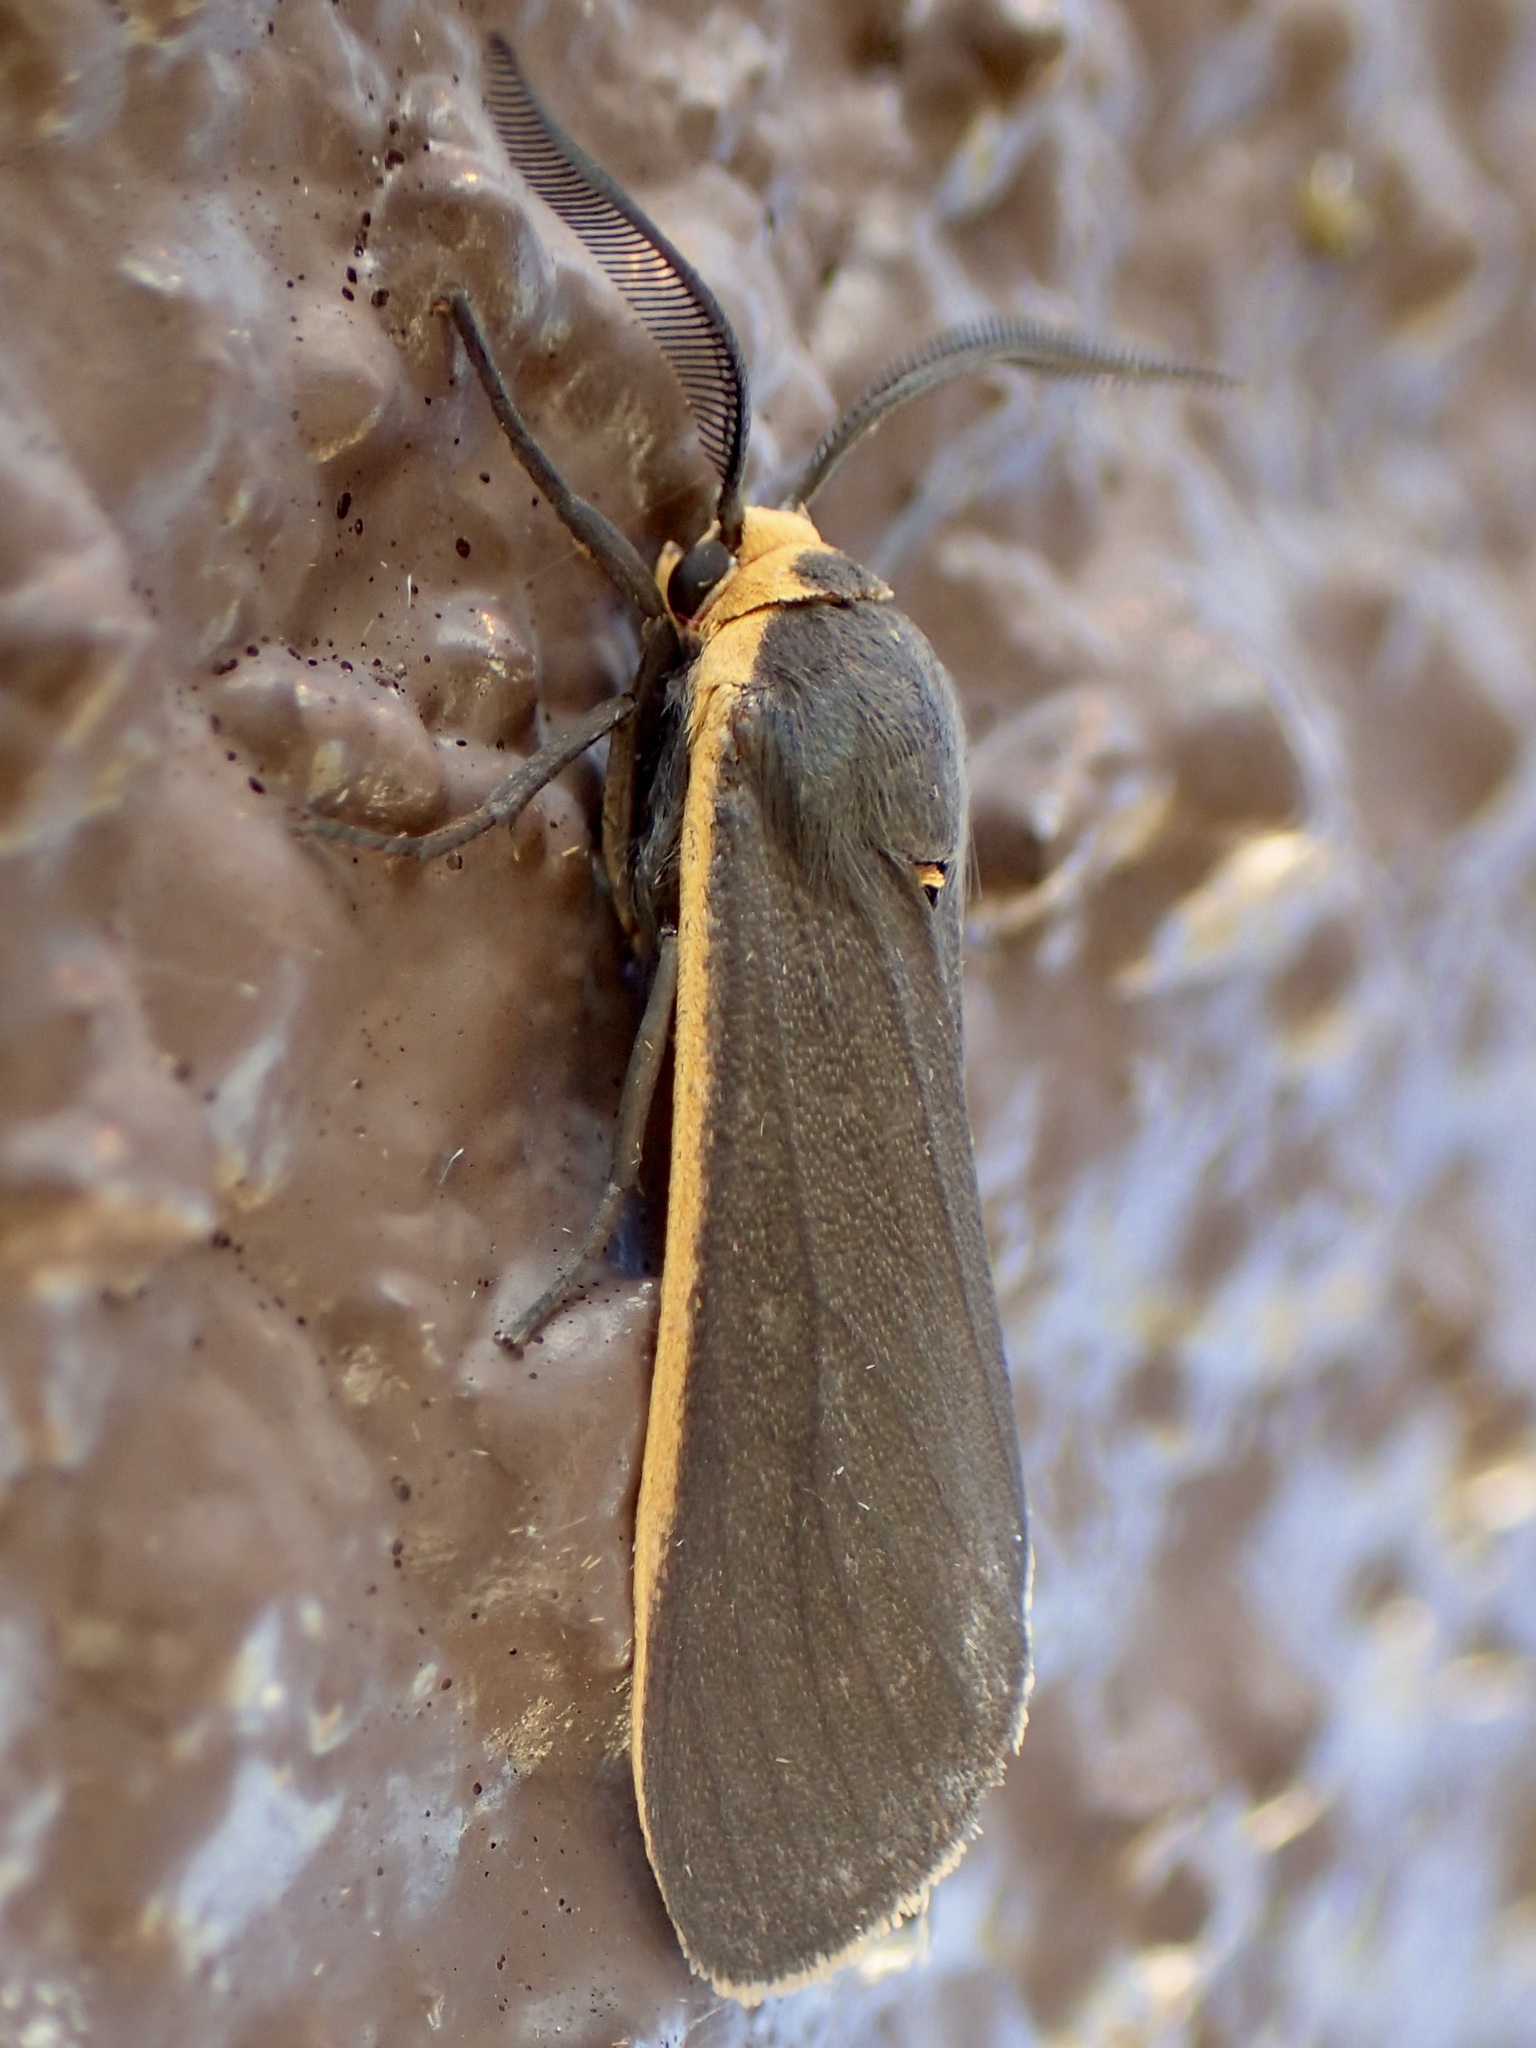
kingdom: Animalia
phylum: Arthropoda
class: Insecta
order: Lepidoptera
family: Erebidae
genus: Euchaetes
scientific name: Euchaetes antica
